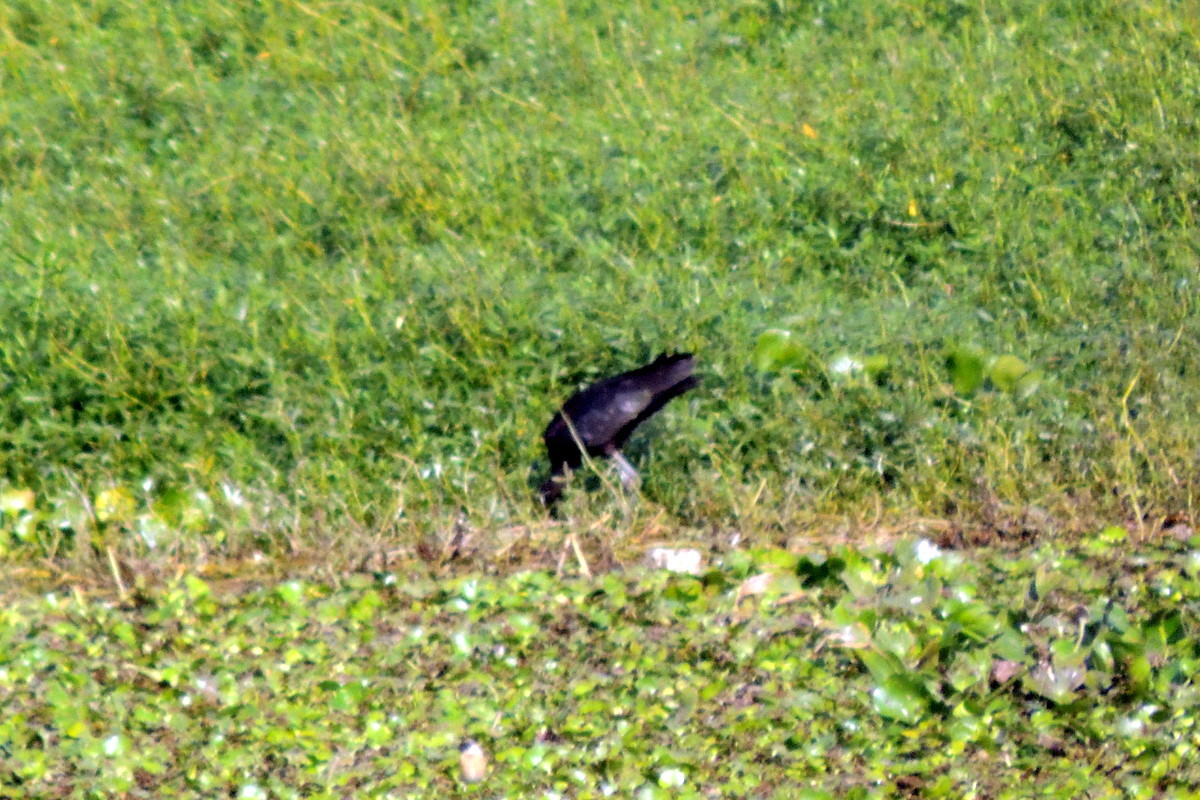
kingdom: Animalia
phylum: Chordata
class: Aves
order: Pelecaniformes
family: Threskiornithidae
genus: Plegadis
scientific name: Plegadis falcinellus
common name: Glossy ibis
